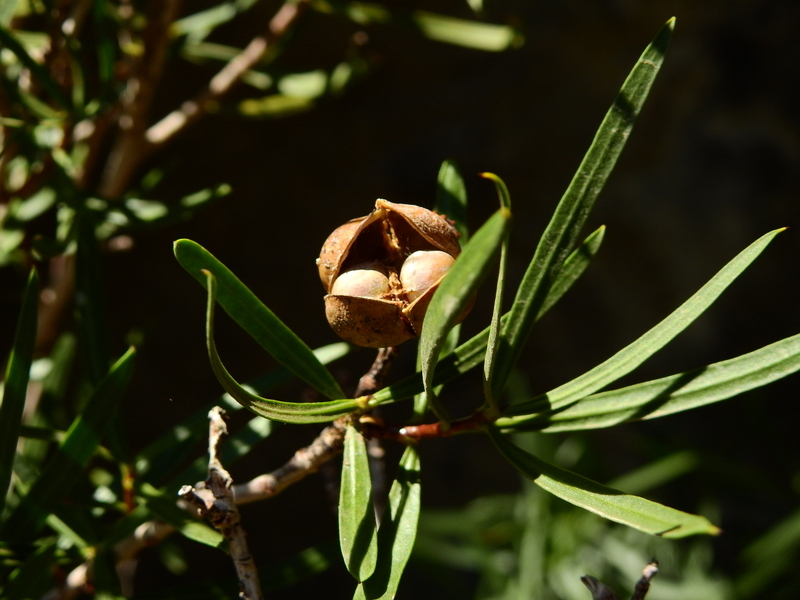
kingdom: Plantae
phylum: Tracheophyta
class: Magnoliopsida
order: Malpighiales
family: Euphorbiaceae
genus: Colliguaja
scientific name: Colliguaja integerrima
